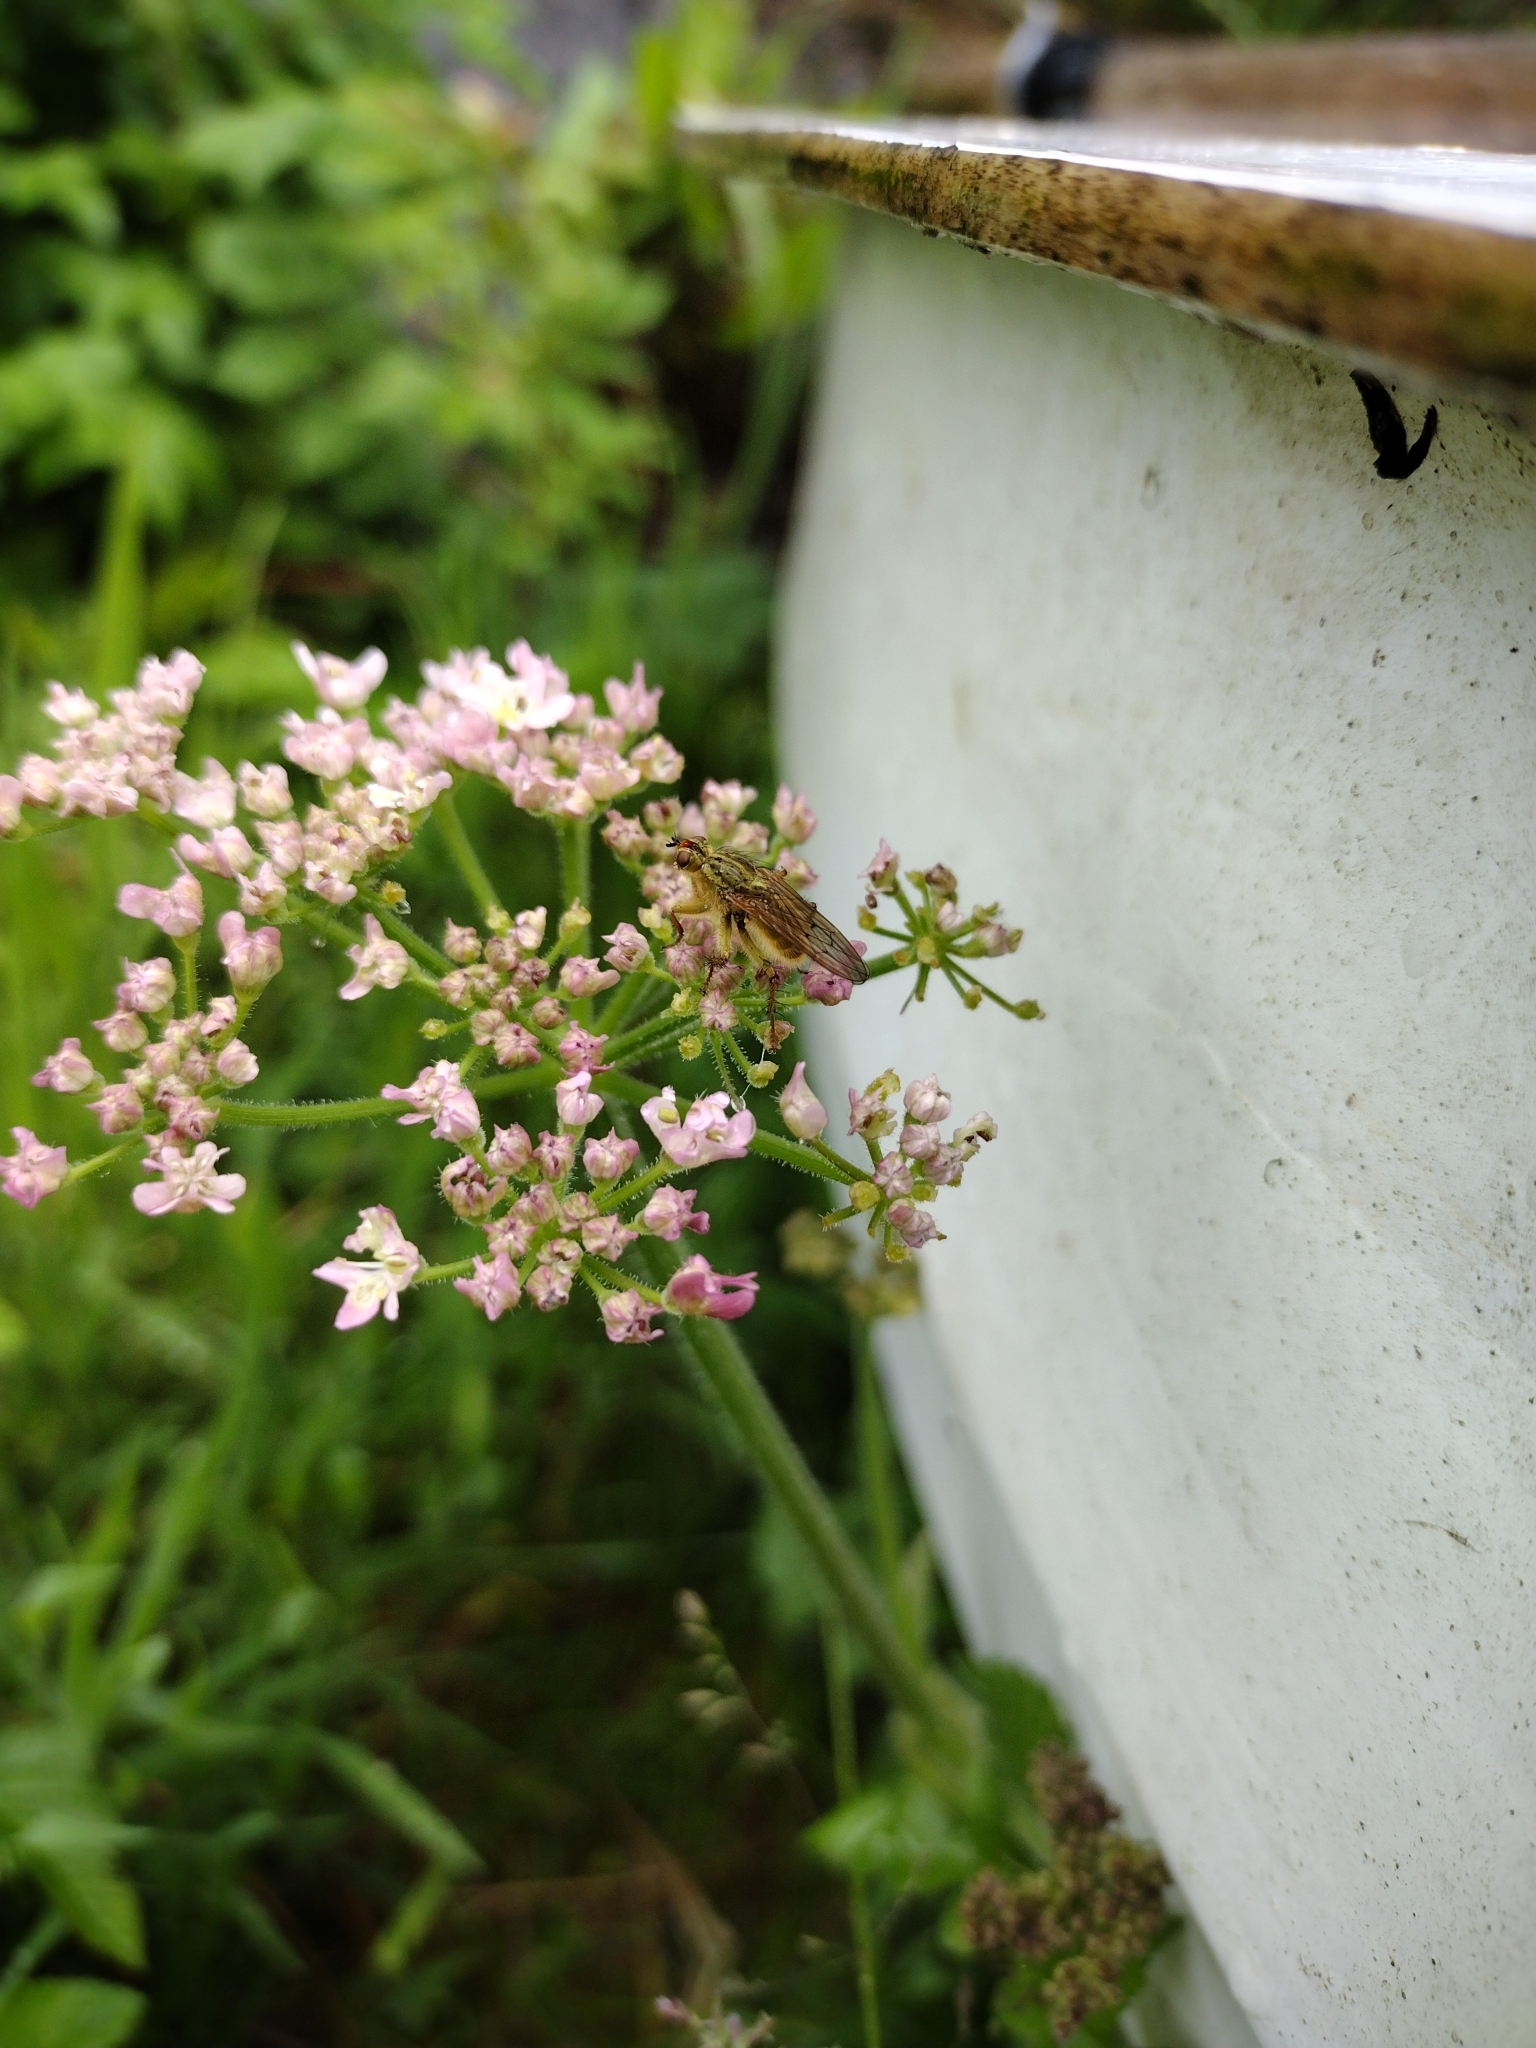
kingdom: Animalia
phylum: Arthropoda
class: Insecta
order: Diptera
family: Scathophagidae
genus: Scathophaga
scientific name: Scathophaga stercoraria
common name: Yellow dung fly
